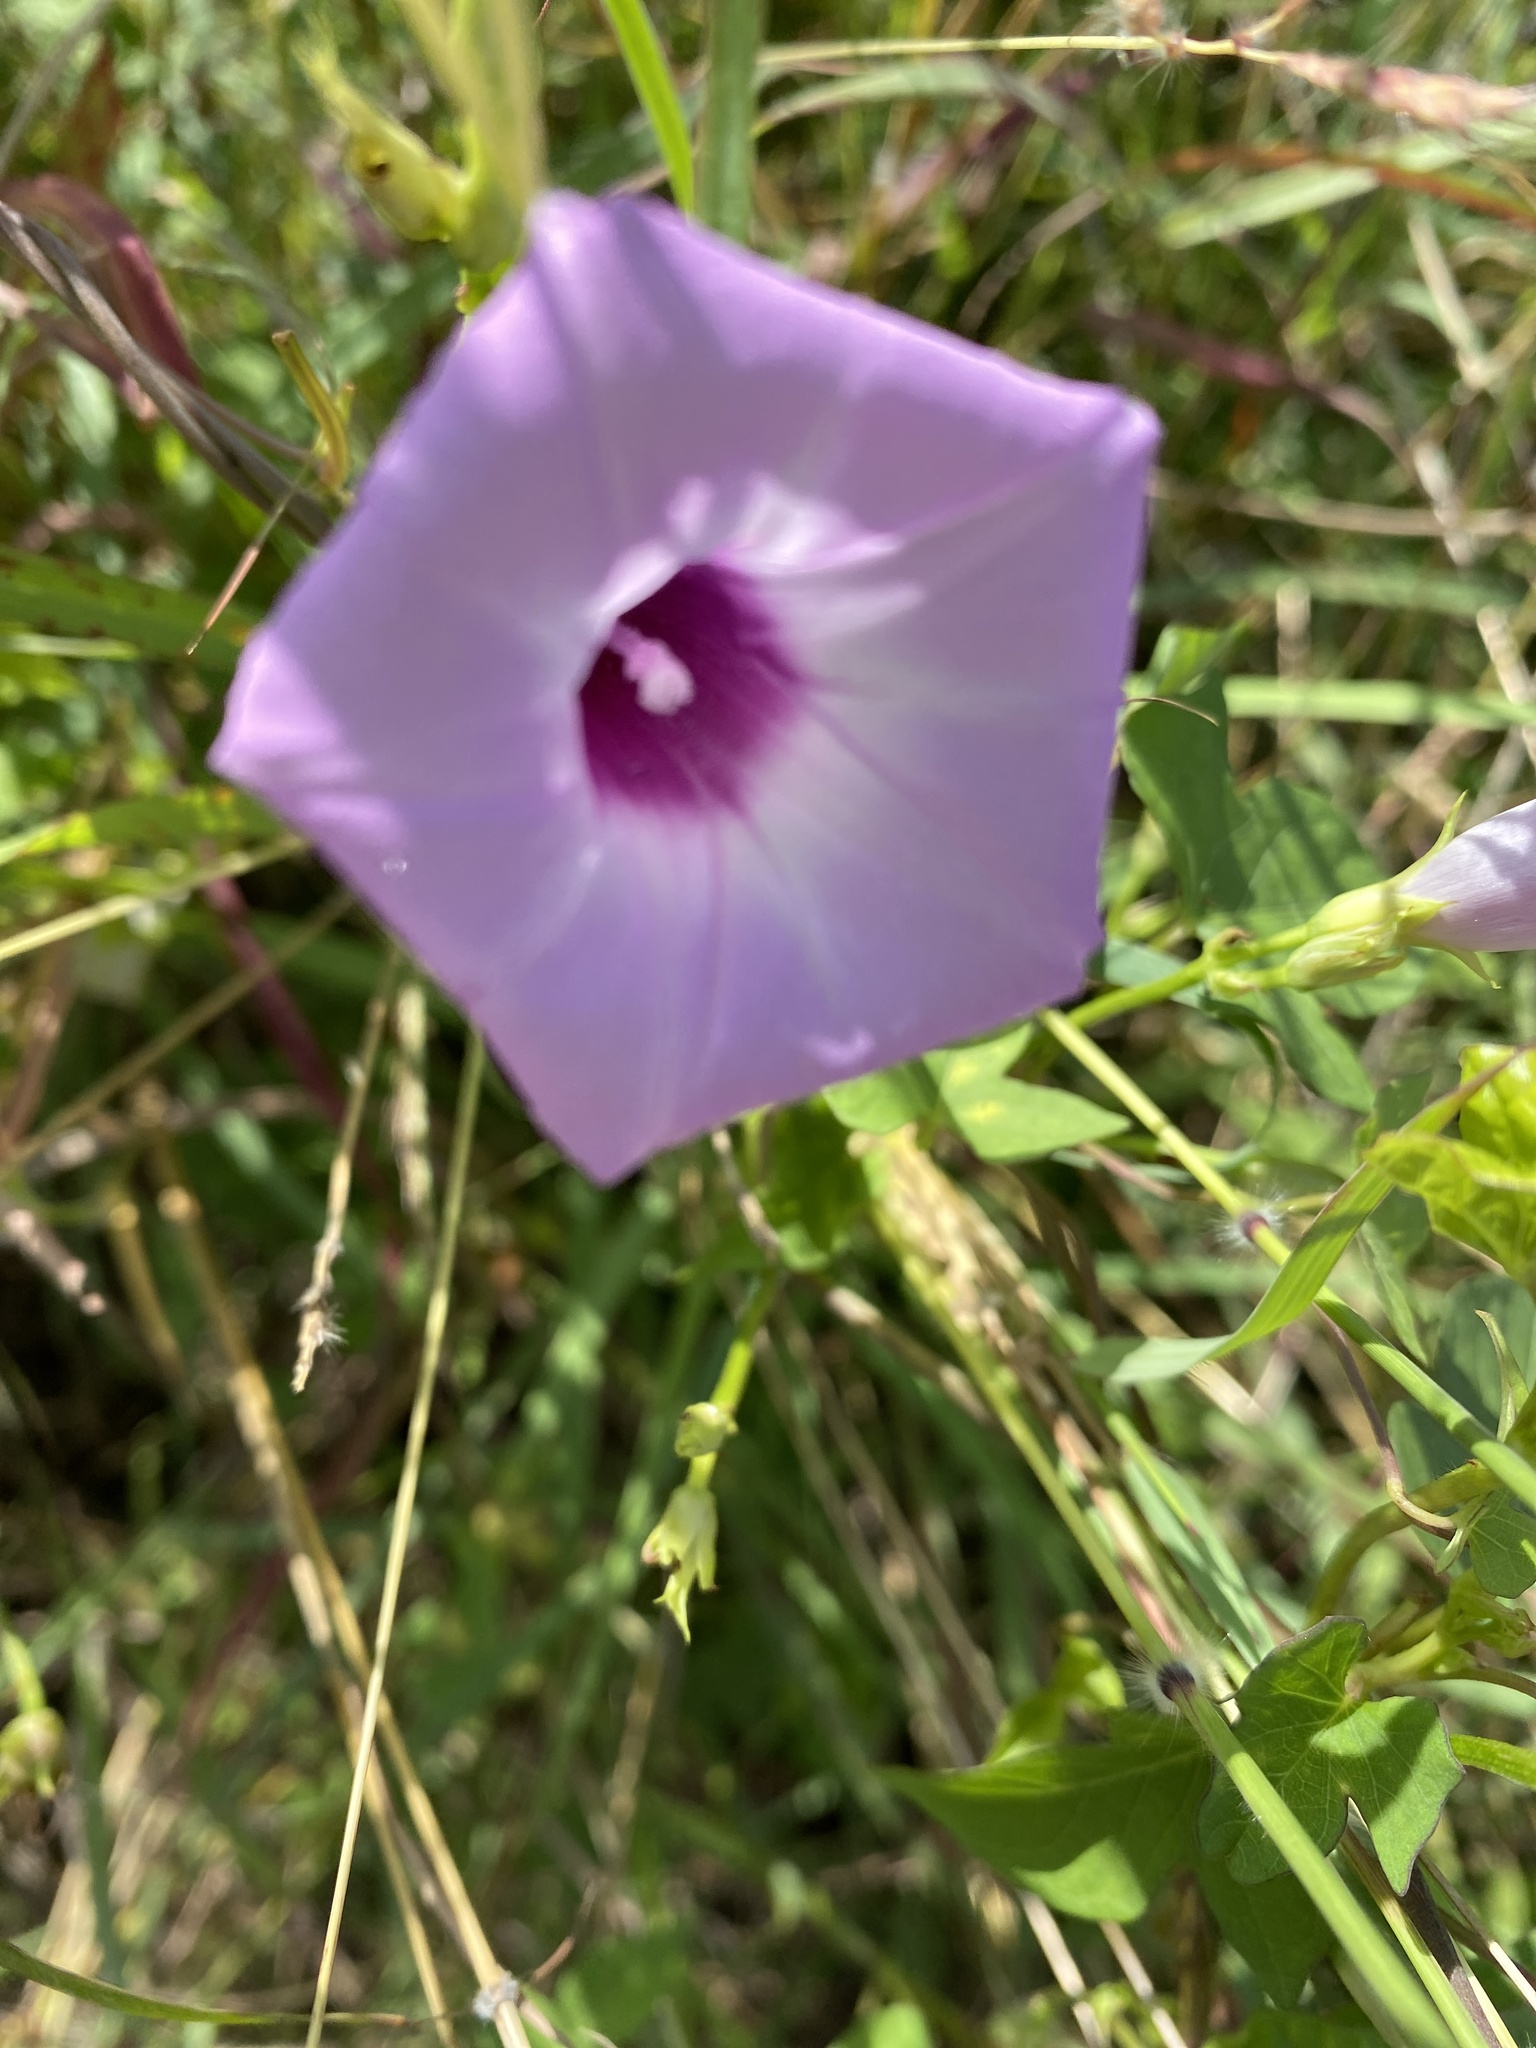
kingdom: Plantae
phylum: Tracheophyta
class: Magnoliopsida
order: Solanales
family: Convolvulaceae
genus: Ipomoea
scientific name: Ipomoea cordatotriloba
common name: Cotton morning glory
